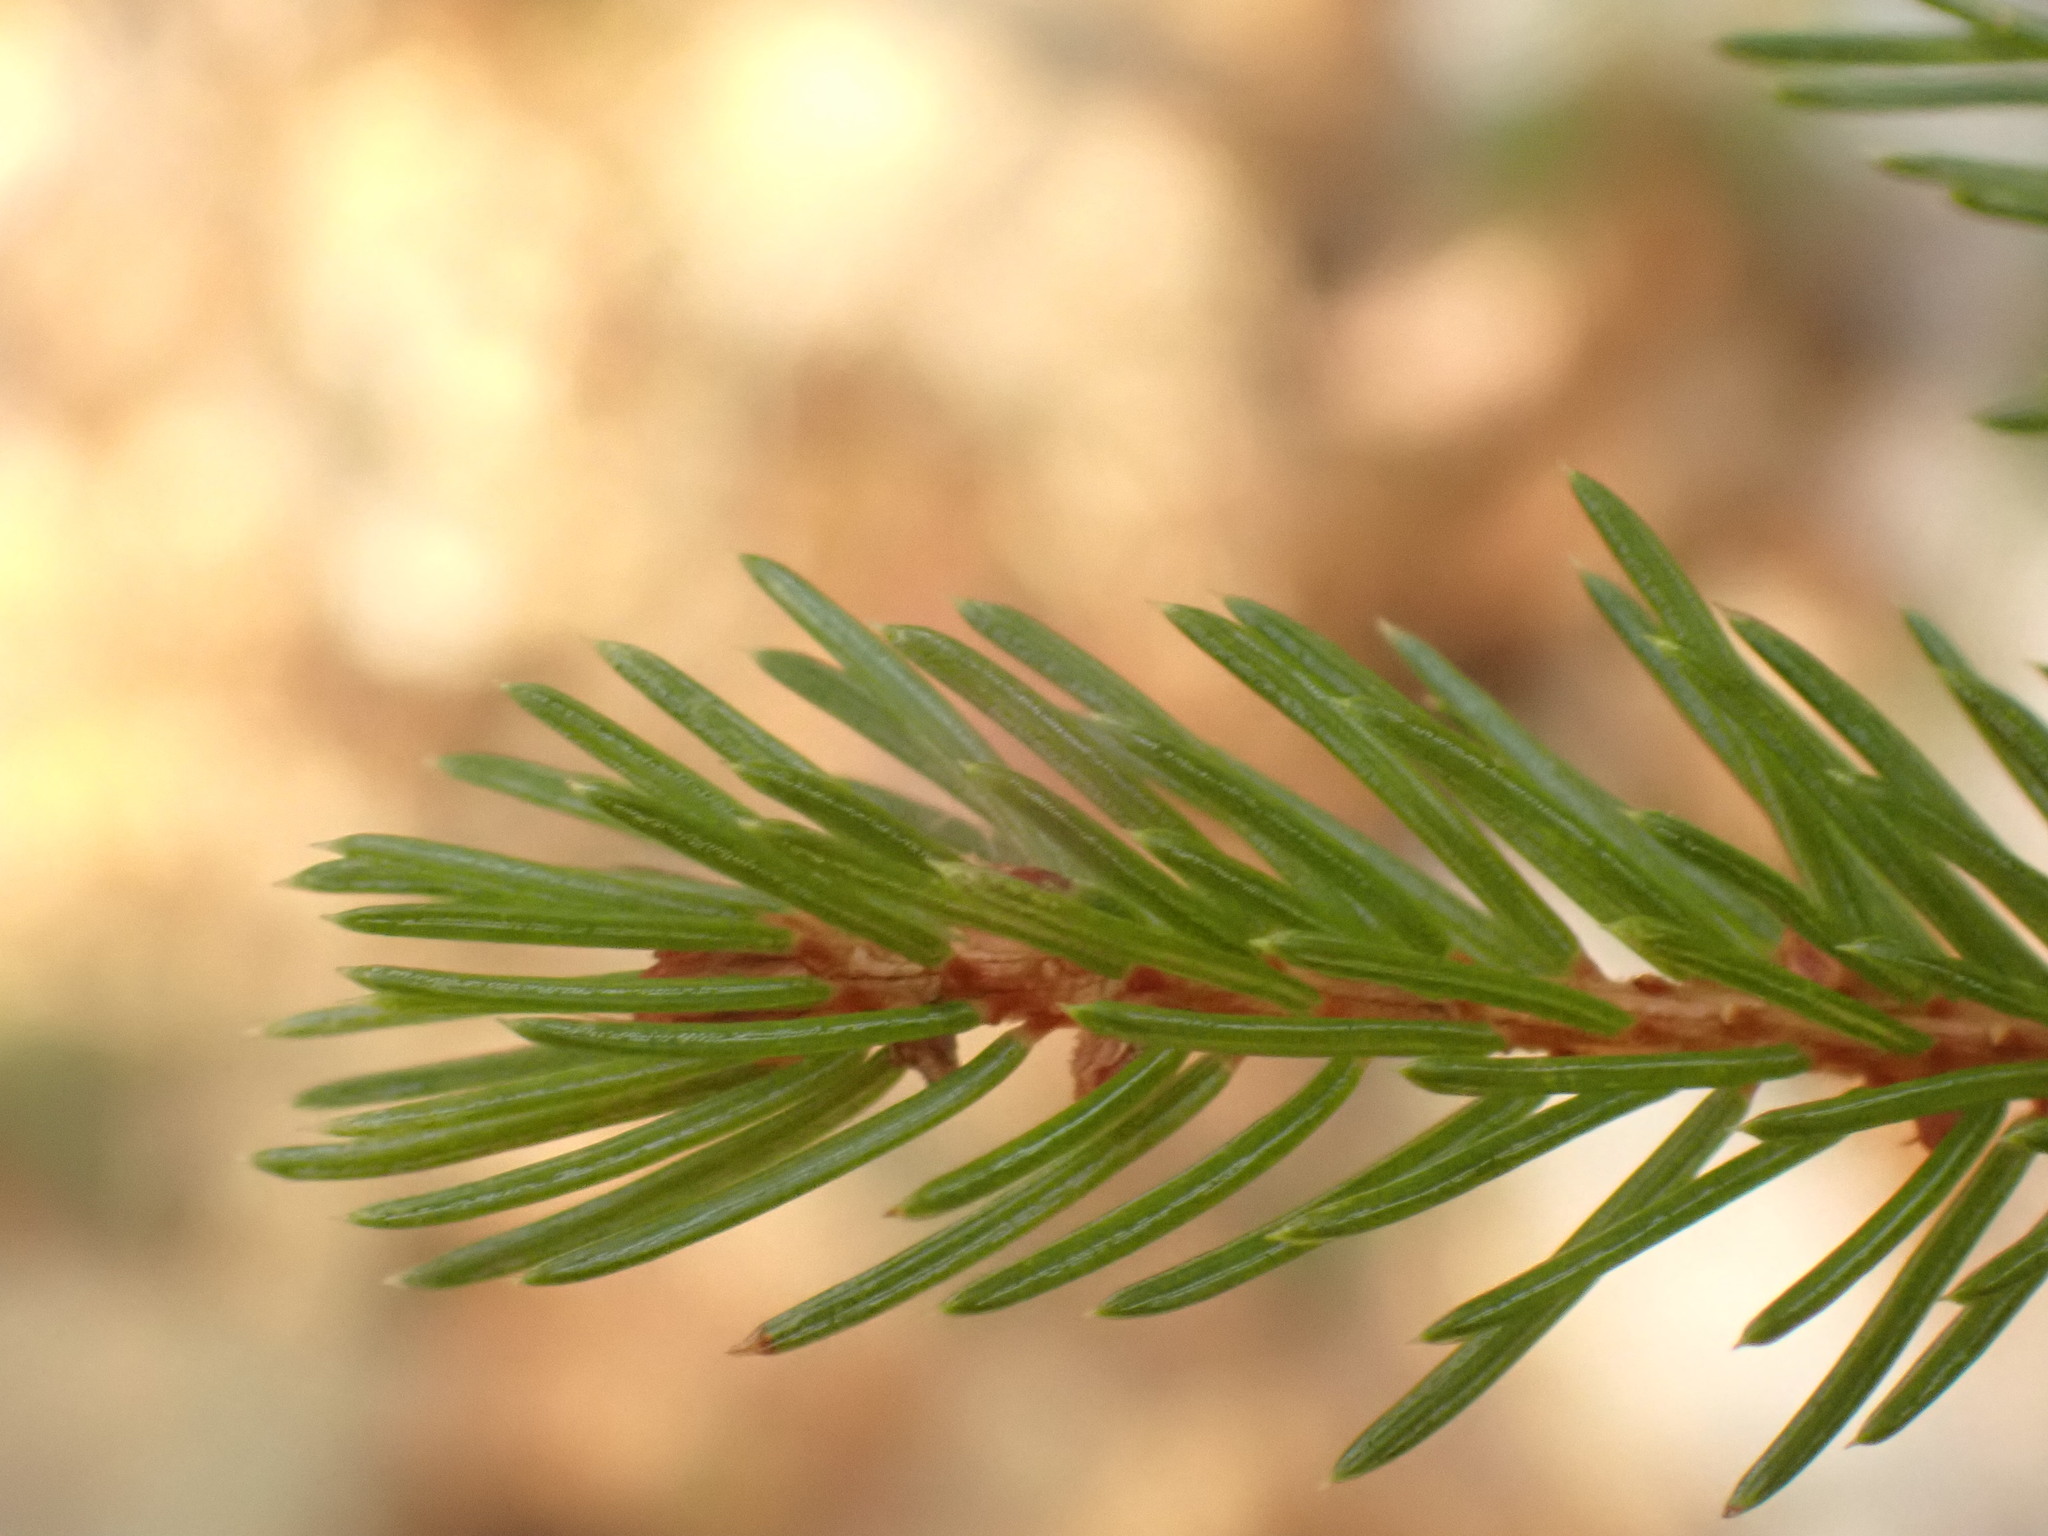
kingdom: Plantae
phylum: Tracheophyta
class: Pinopsida
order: Pinales
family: Pinaceae
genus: Picea
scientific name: Picea rubens
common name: Red spruce
